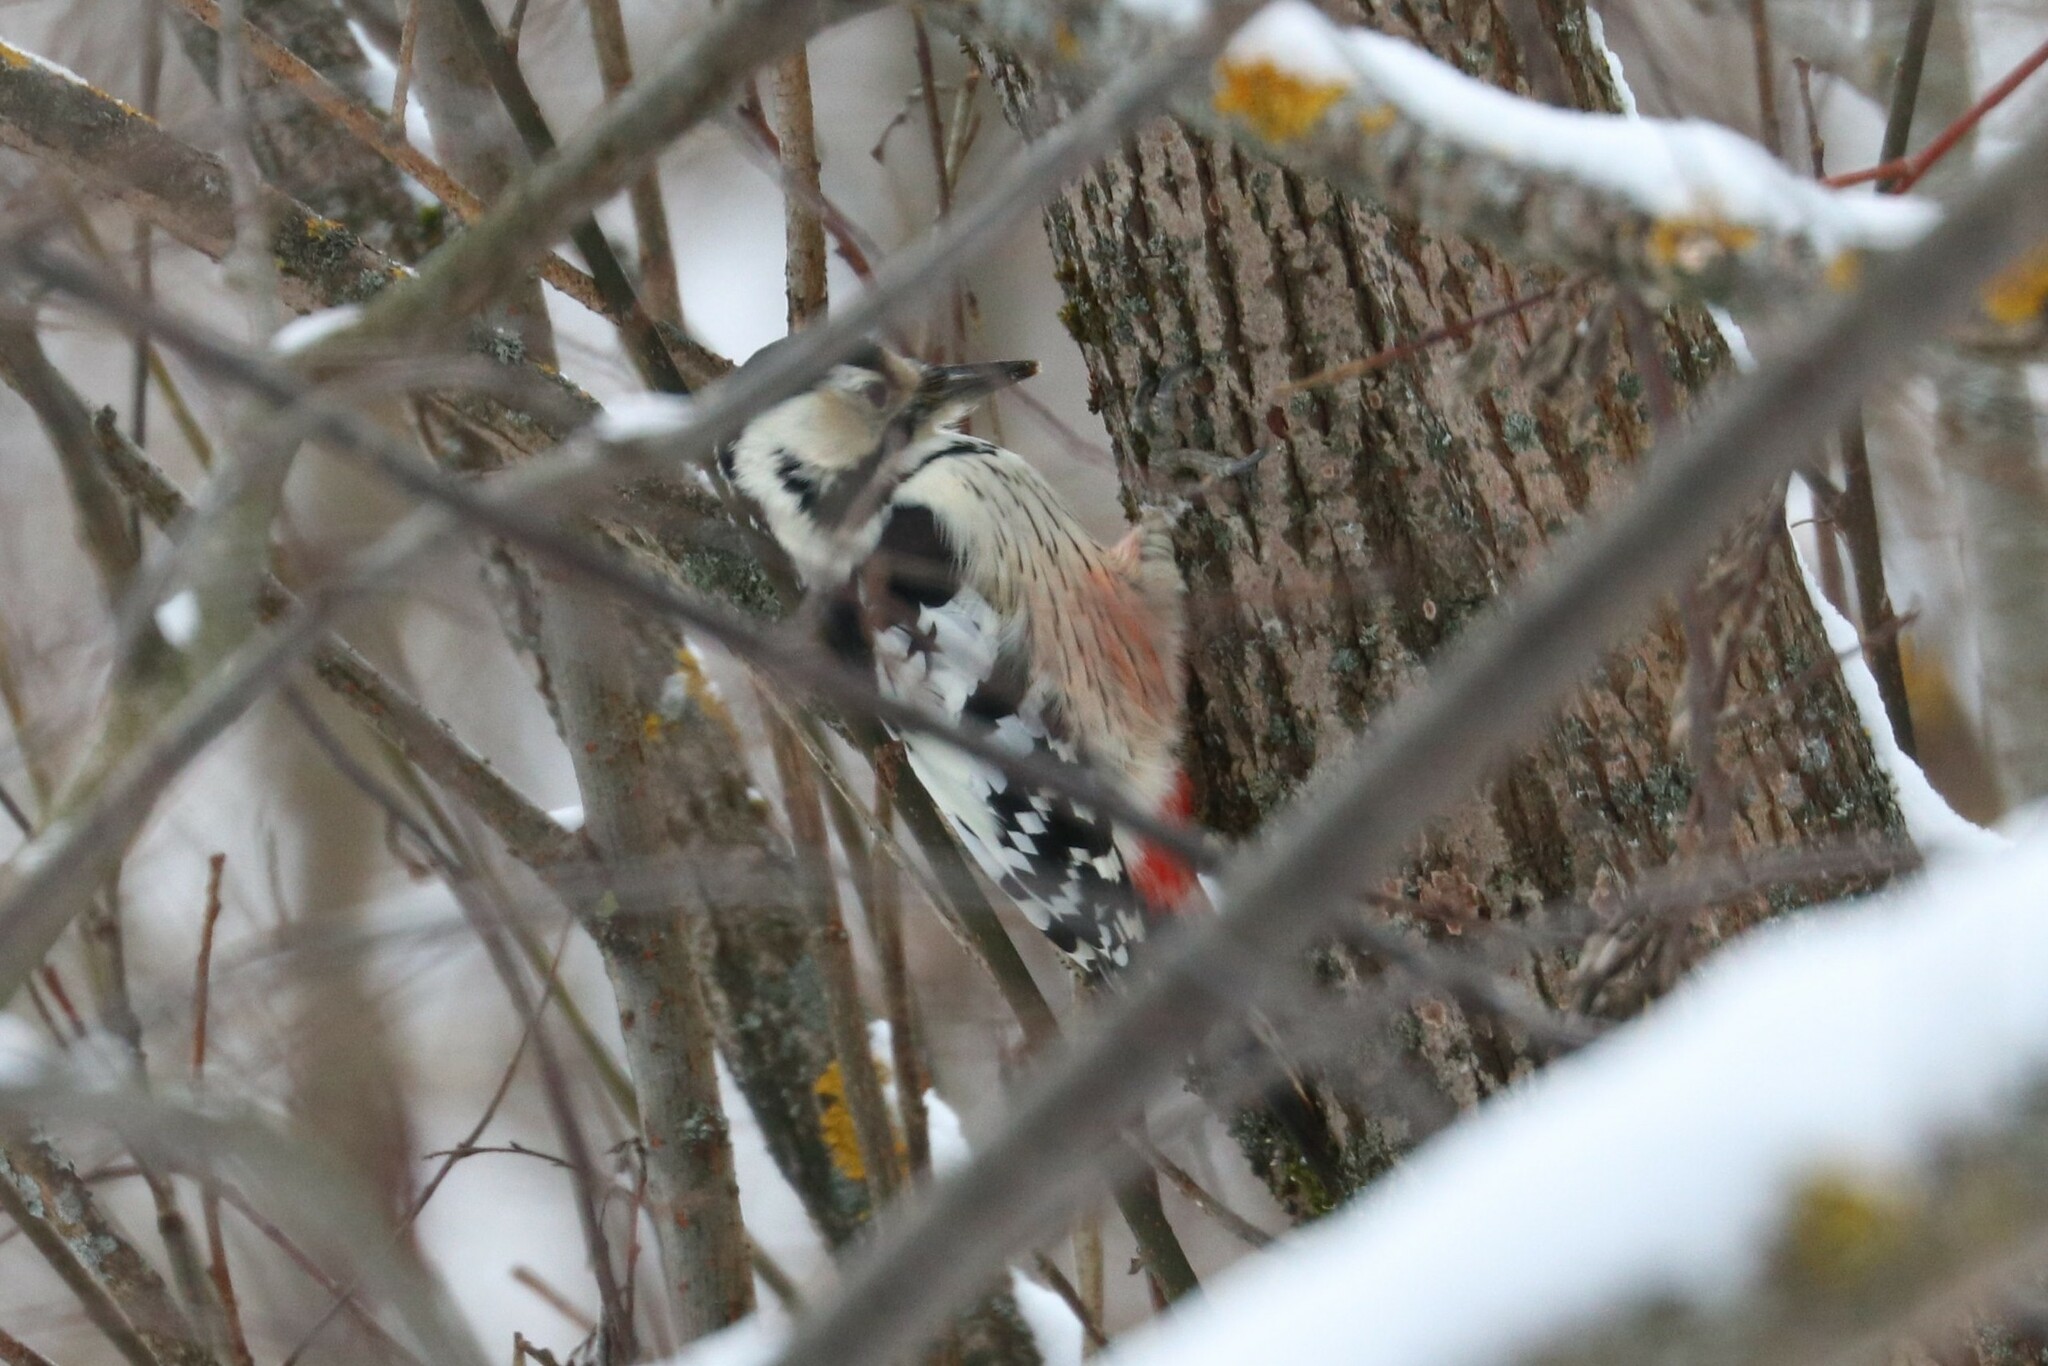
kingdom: Animalia
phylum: Chordata
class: Aves
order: Piciformes
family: Picidae
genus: Dendrocopos
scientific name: Dendrocopos leucotos
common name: White-backed woodpecker
